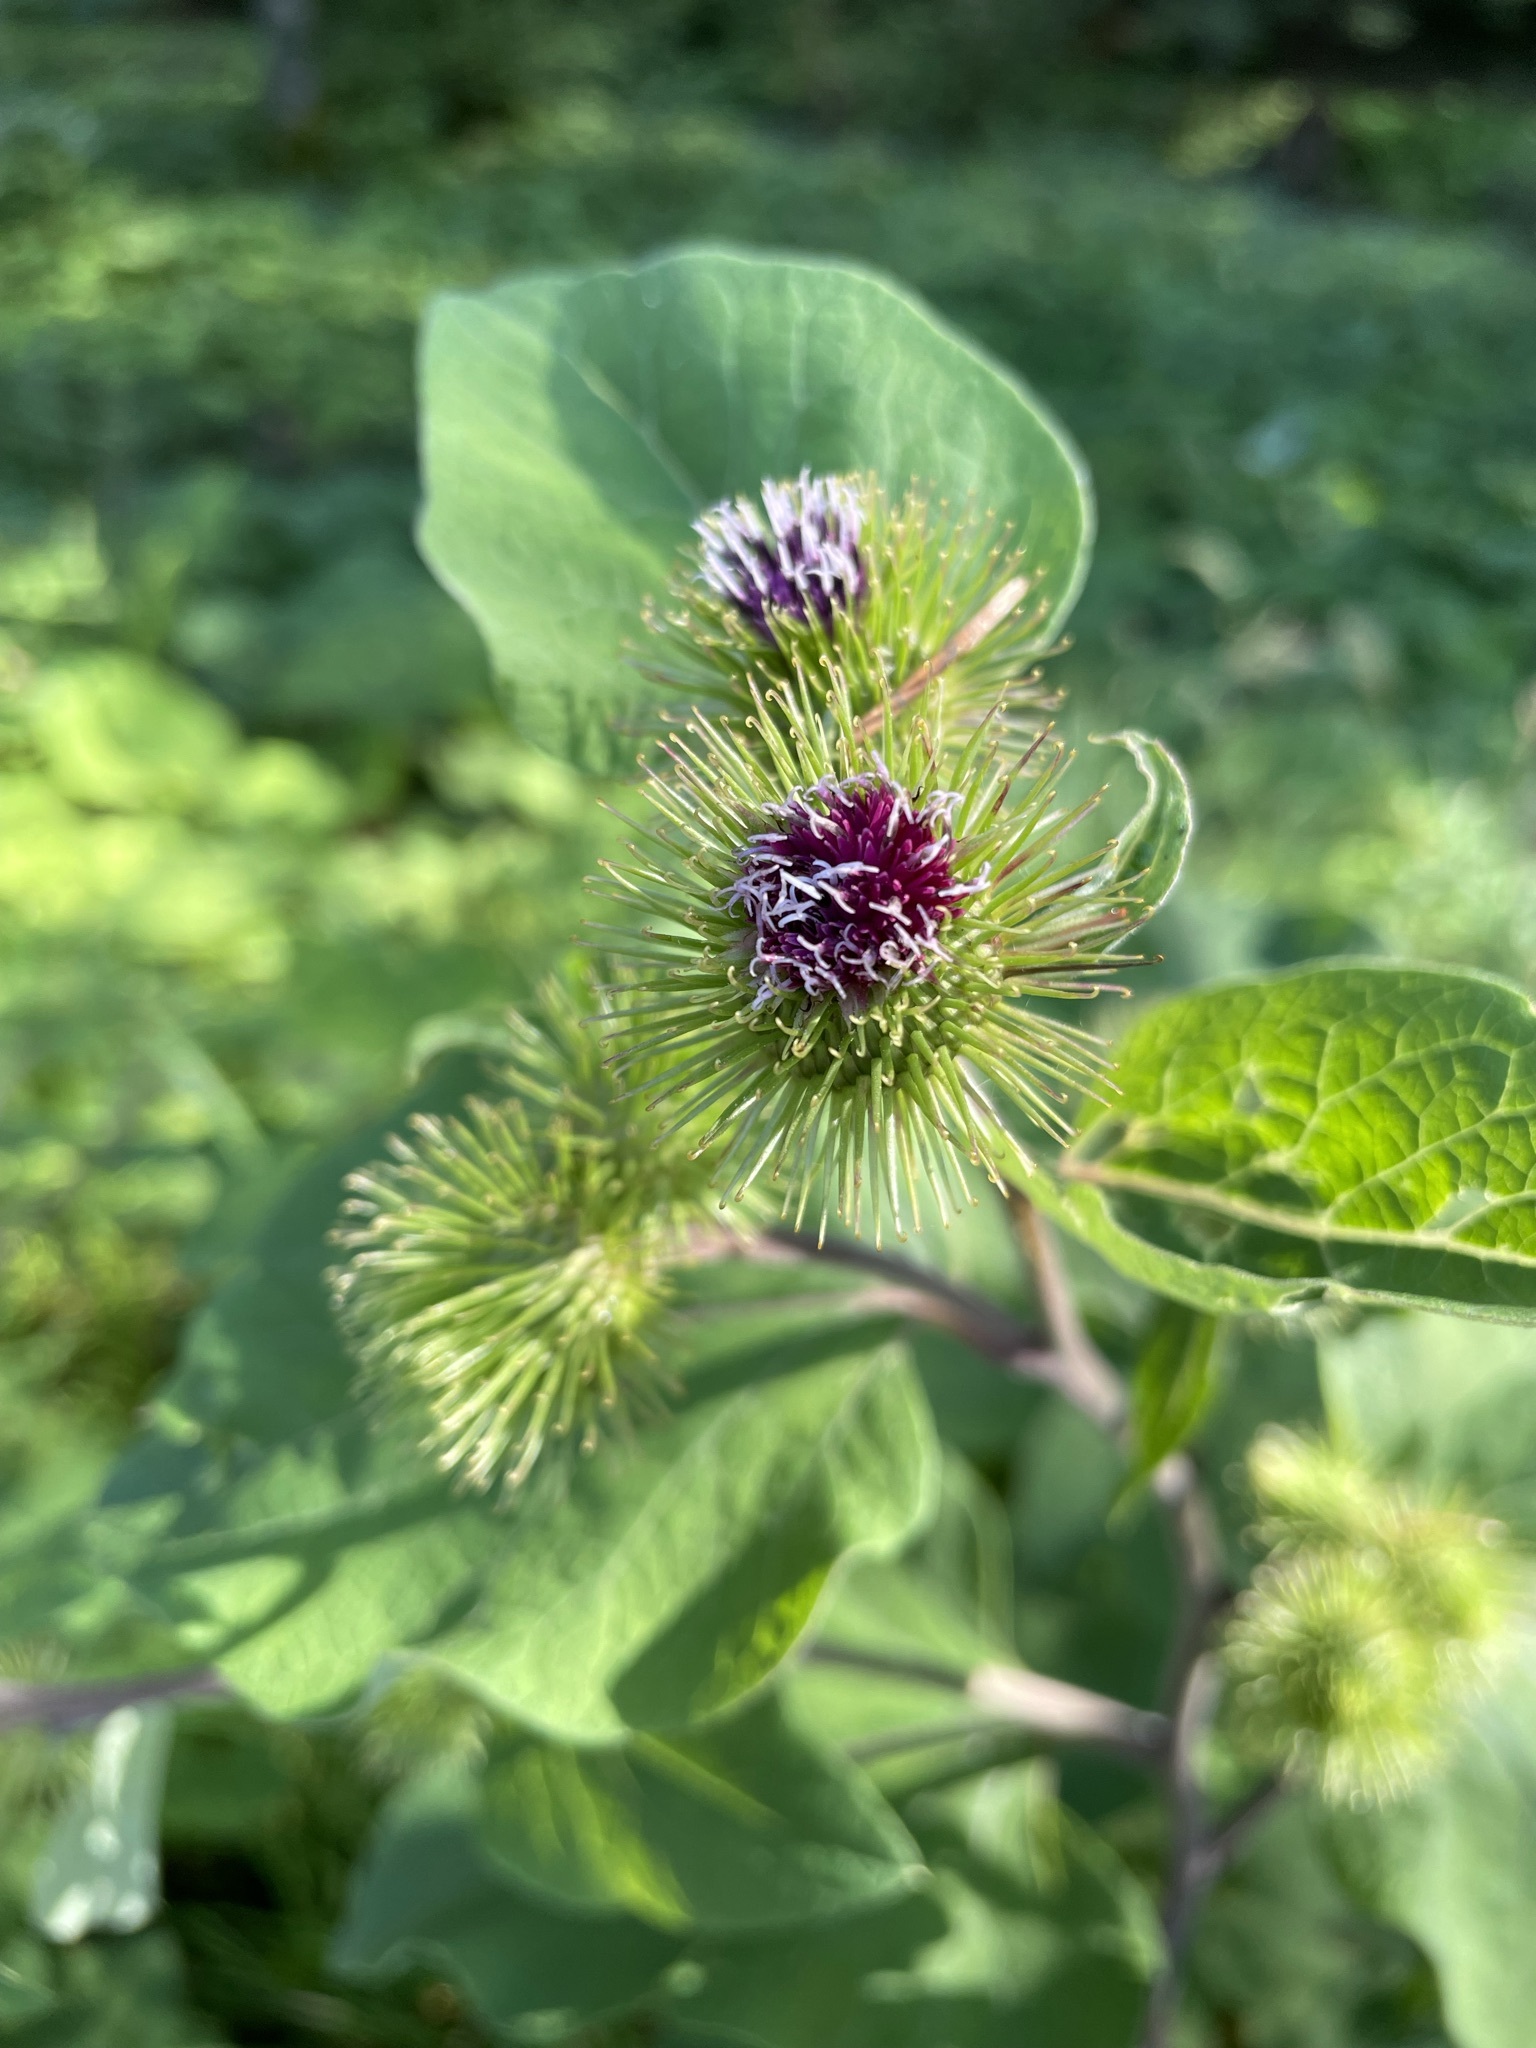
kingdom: Plantae
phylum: Tracheophyta
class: Magnoliopsida
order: Asterales
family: Asteraceae
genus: Arctium
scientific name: Arctium lappa
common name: Greater burdock
